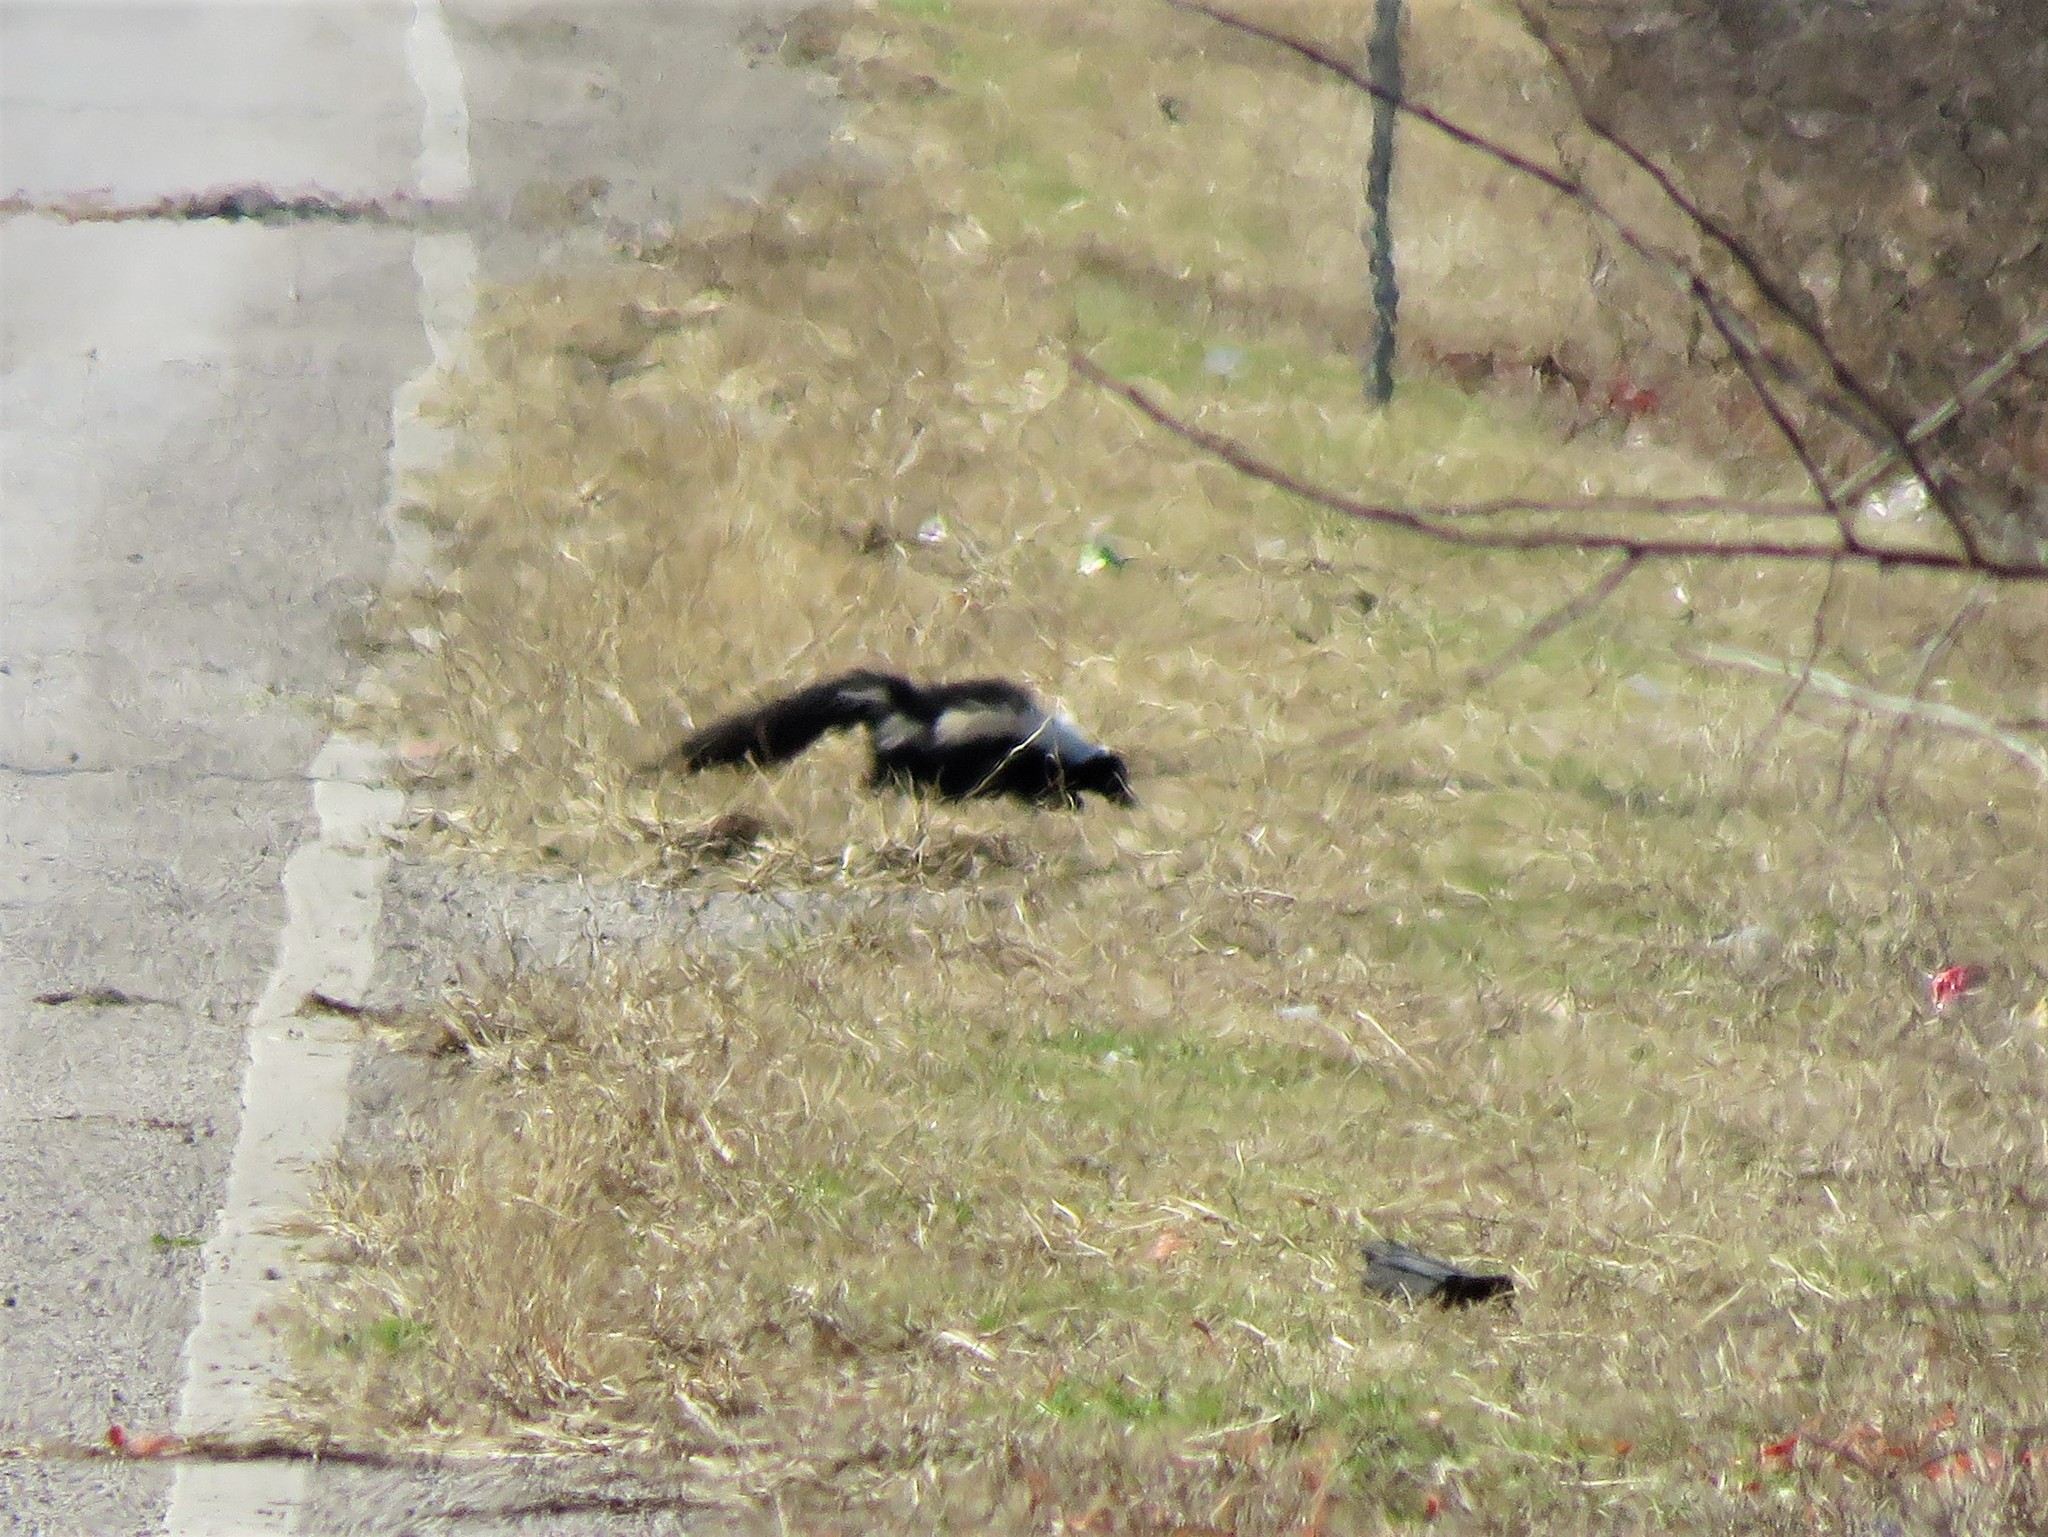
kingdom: Animalia
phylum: Chordata
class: Mammalia
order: Carnivora
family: Mephitidae
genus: Mephitis
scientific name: Mephitis mephitis
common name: Striped skunk
